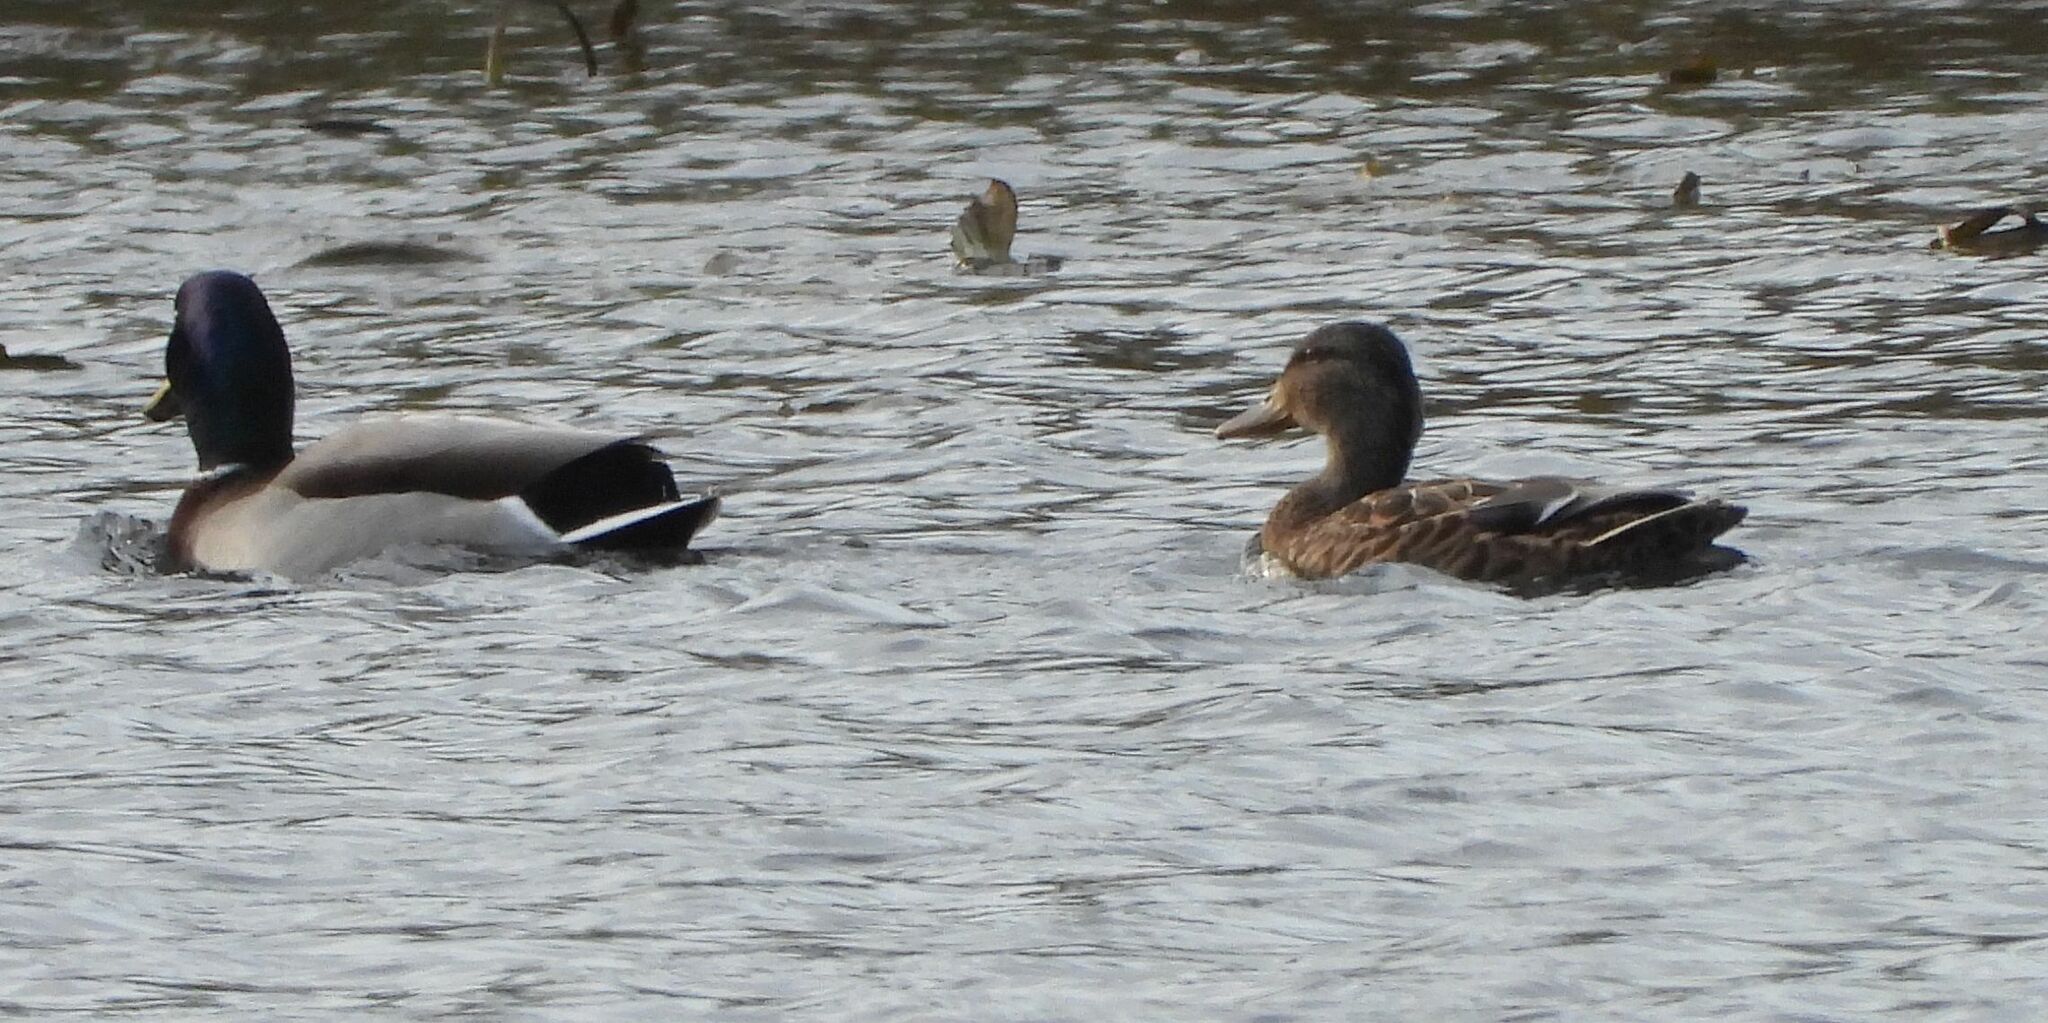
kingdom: Animalia
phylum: Chordata
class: Aves
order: Anseriformes
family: Anatidae
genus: Anas
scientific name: Anas platyrhynchos
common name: Mallard
